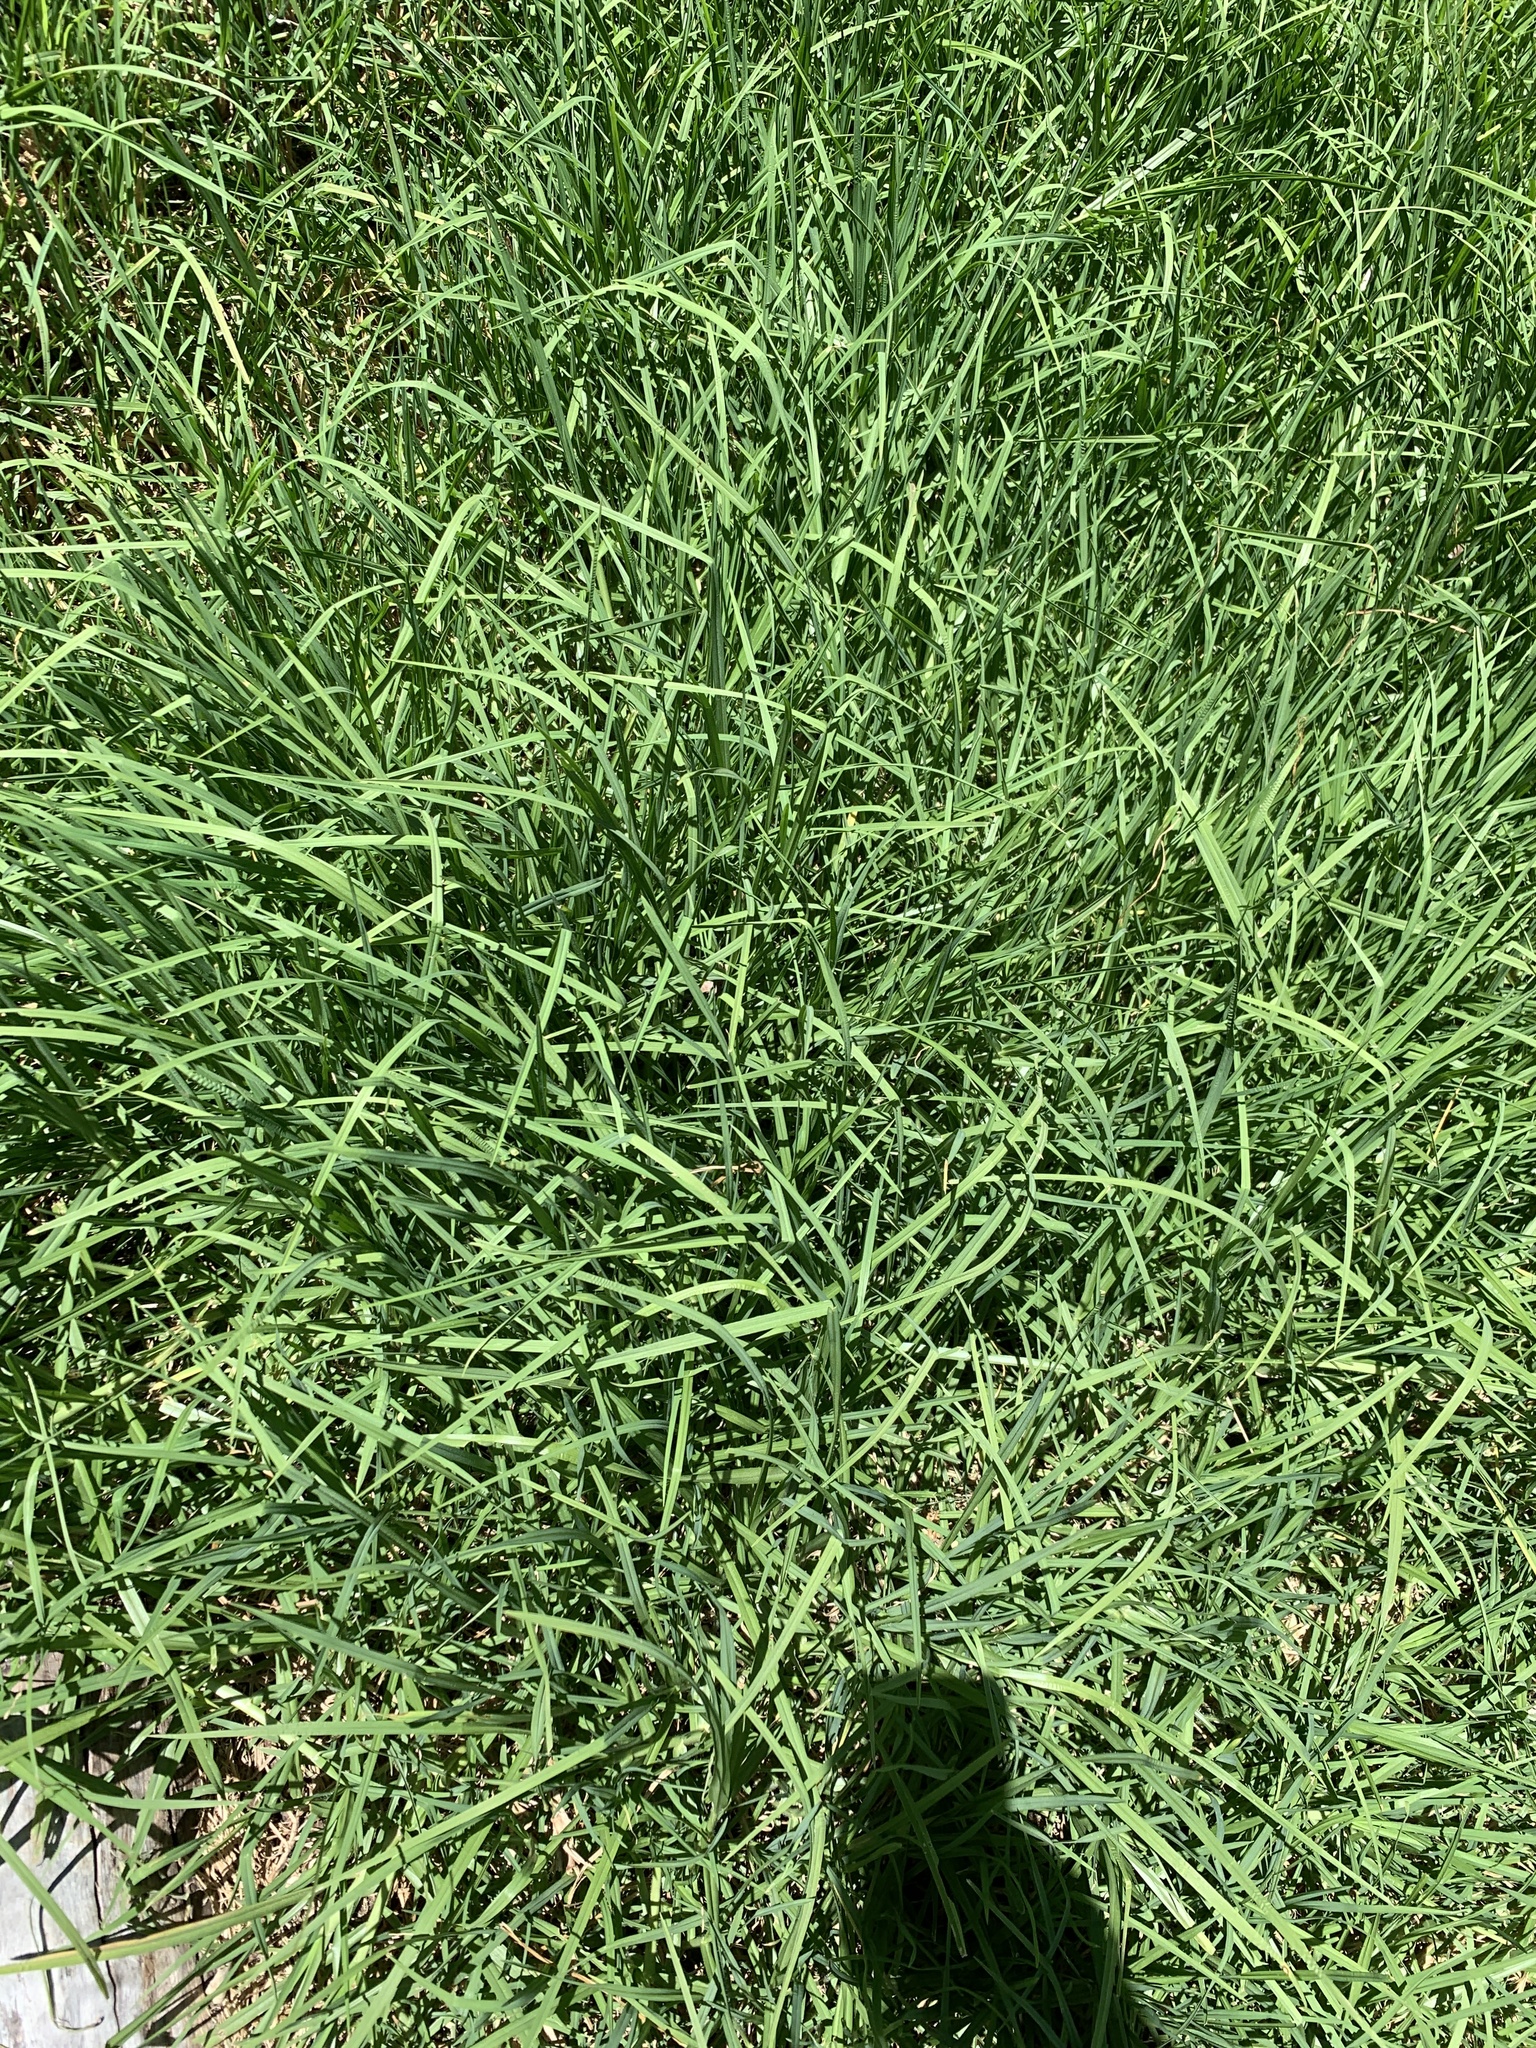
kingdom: Plantae
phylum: Tracheophyta
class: Liliopsida
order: Poales
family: Poaceae
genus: Cenchrus
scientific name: Cenchrus clandestinus
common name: Kikuyugrass
